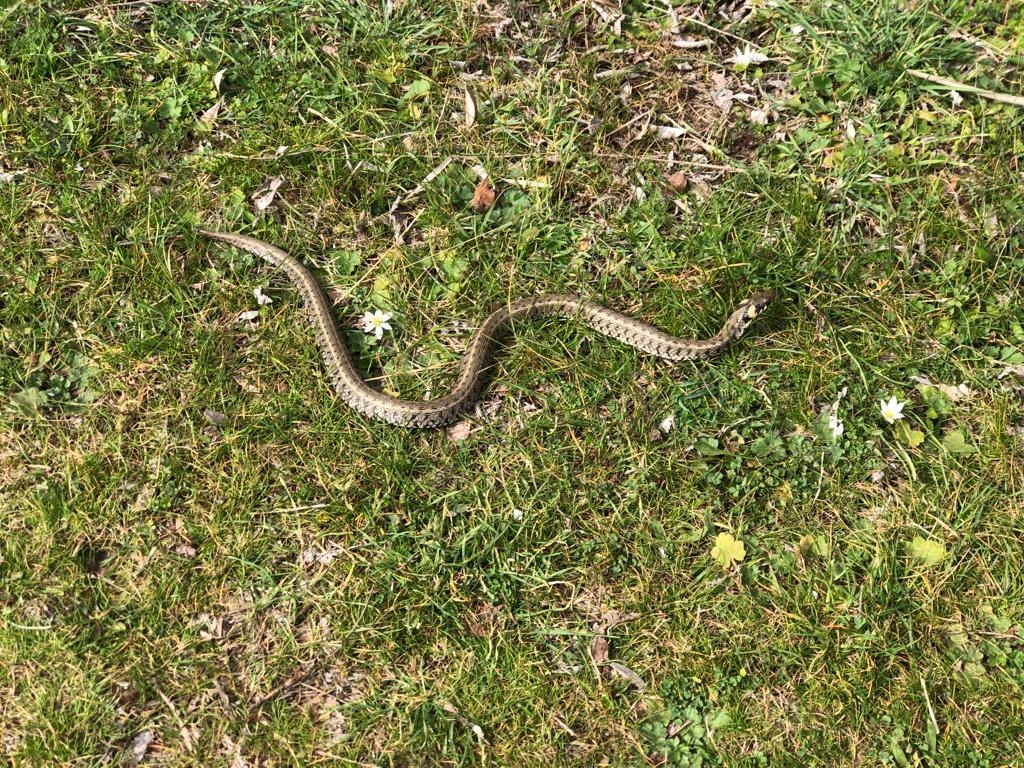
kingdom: Animalia
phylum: Chordata
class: Squamata
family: Colubridae
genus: Natrix
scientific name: Natrix natrix
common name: Grass snake
